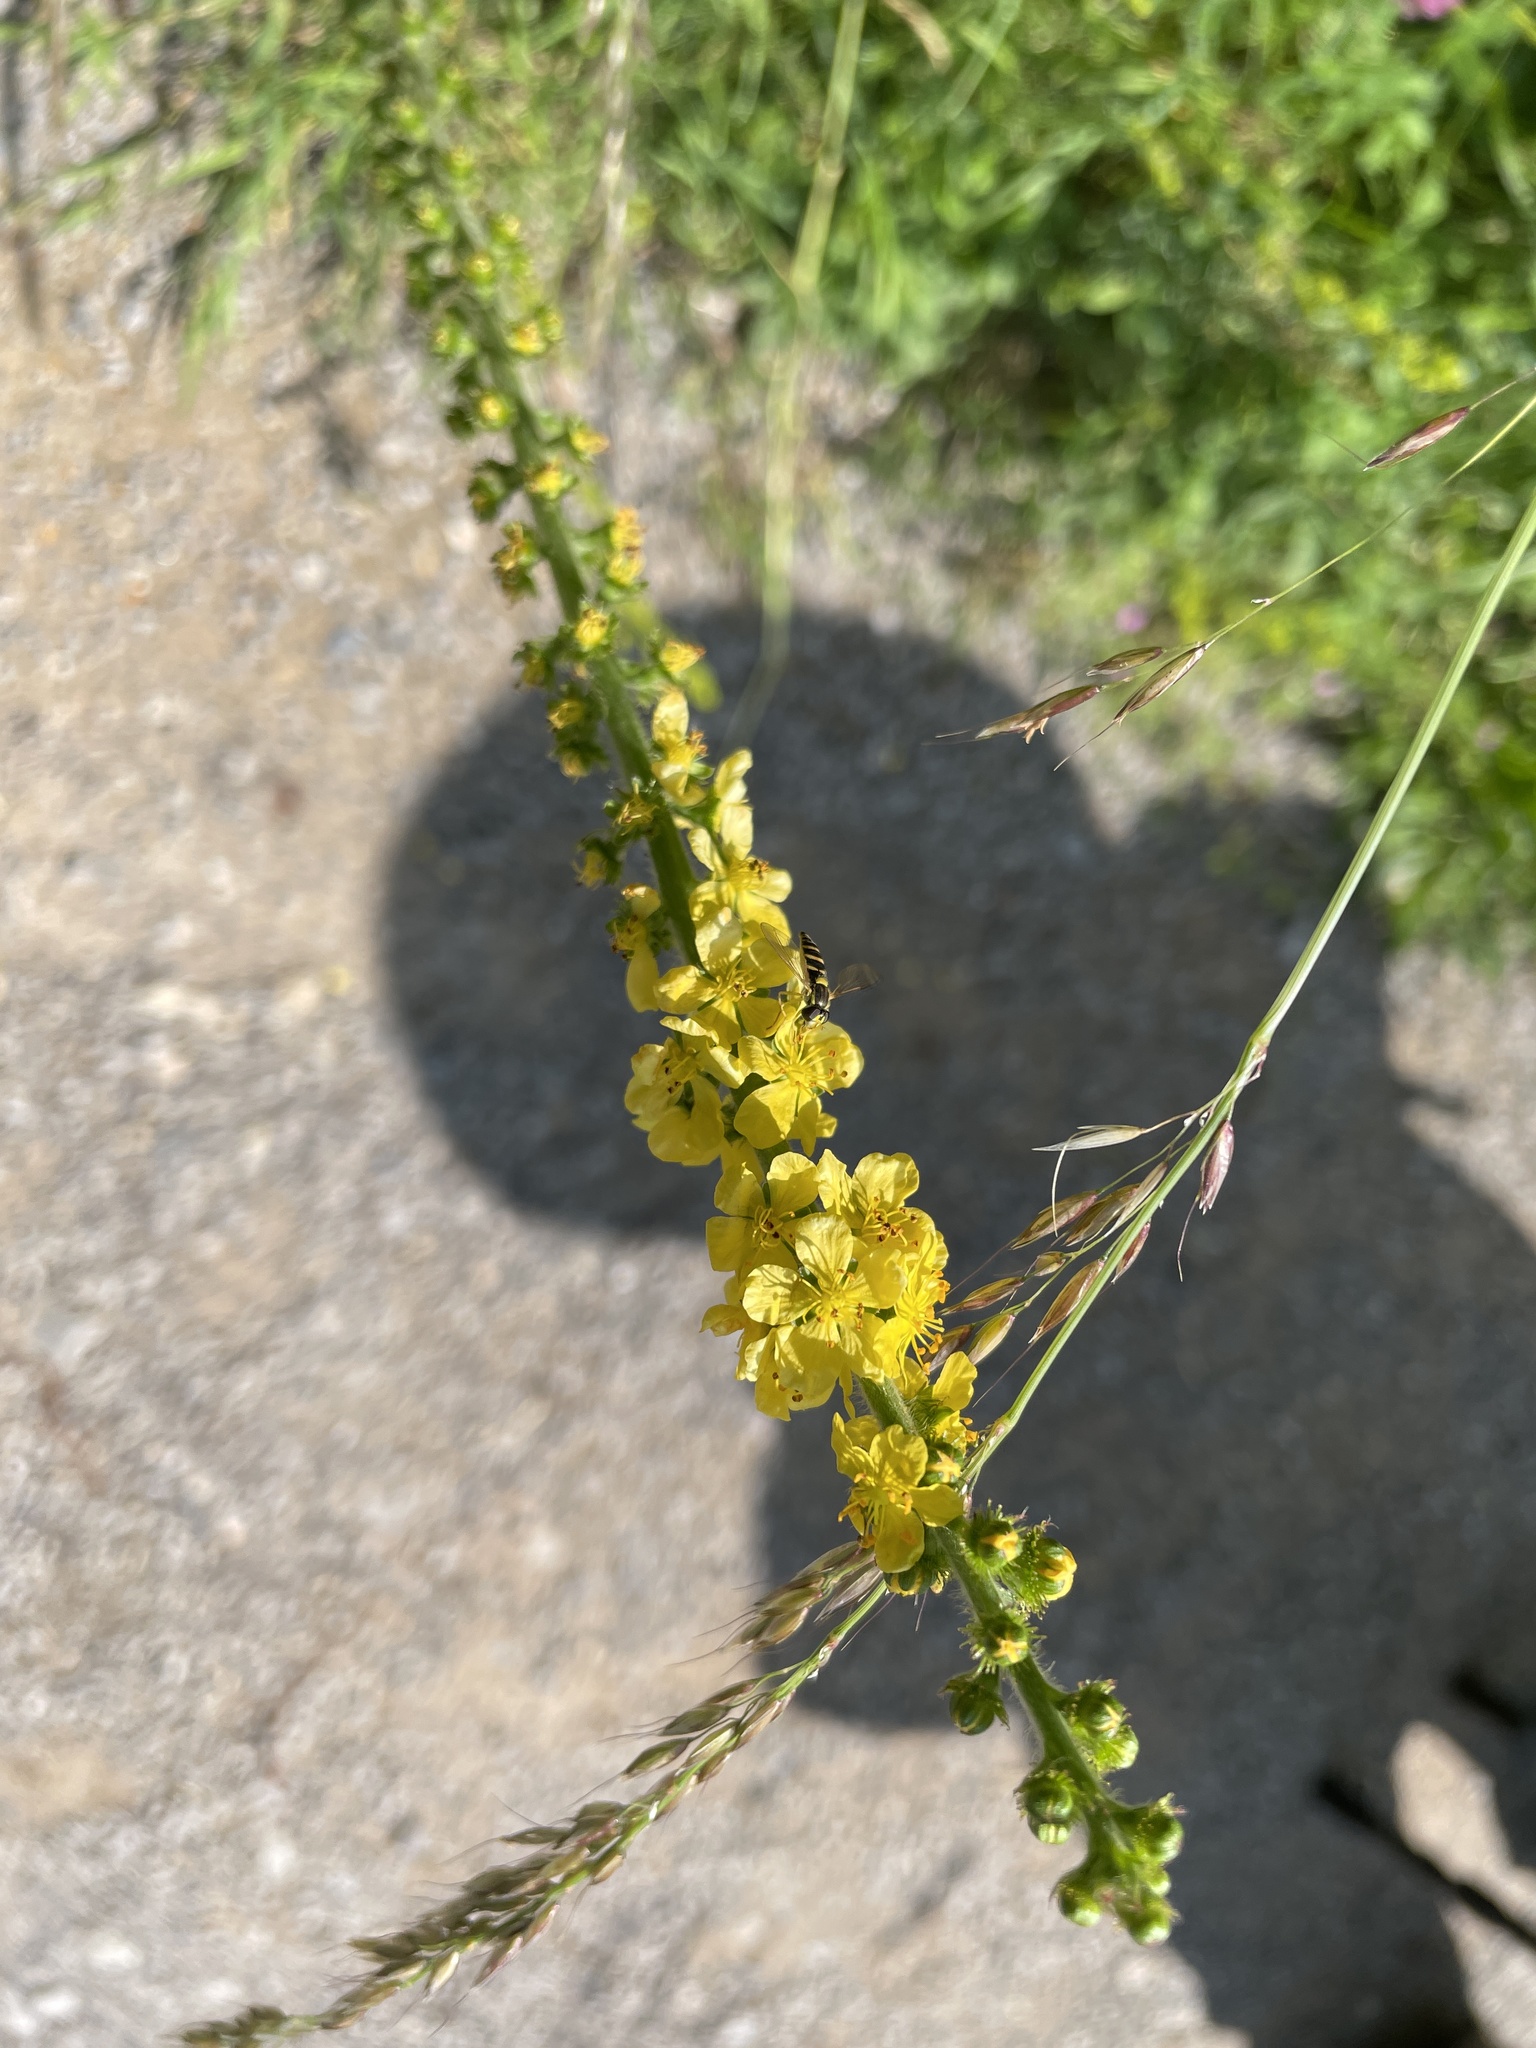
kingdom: Plantae
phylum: Tracheophyta
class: Magnoliopsida
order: Rosales
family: Rosaceae
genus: Agrimonia
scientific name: Agrimonia eupatoria
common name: Agrimony
